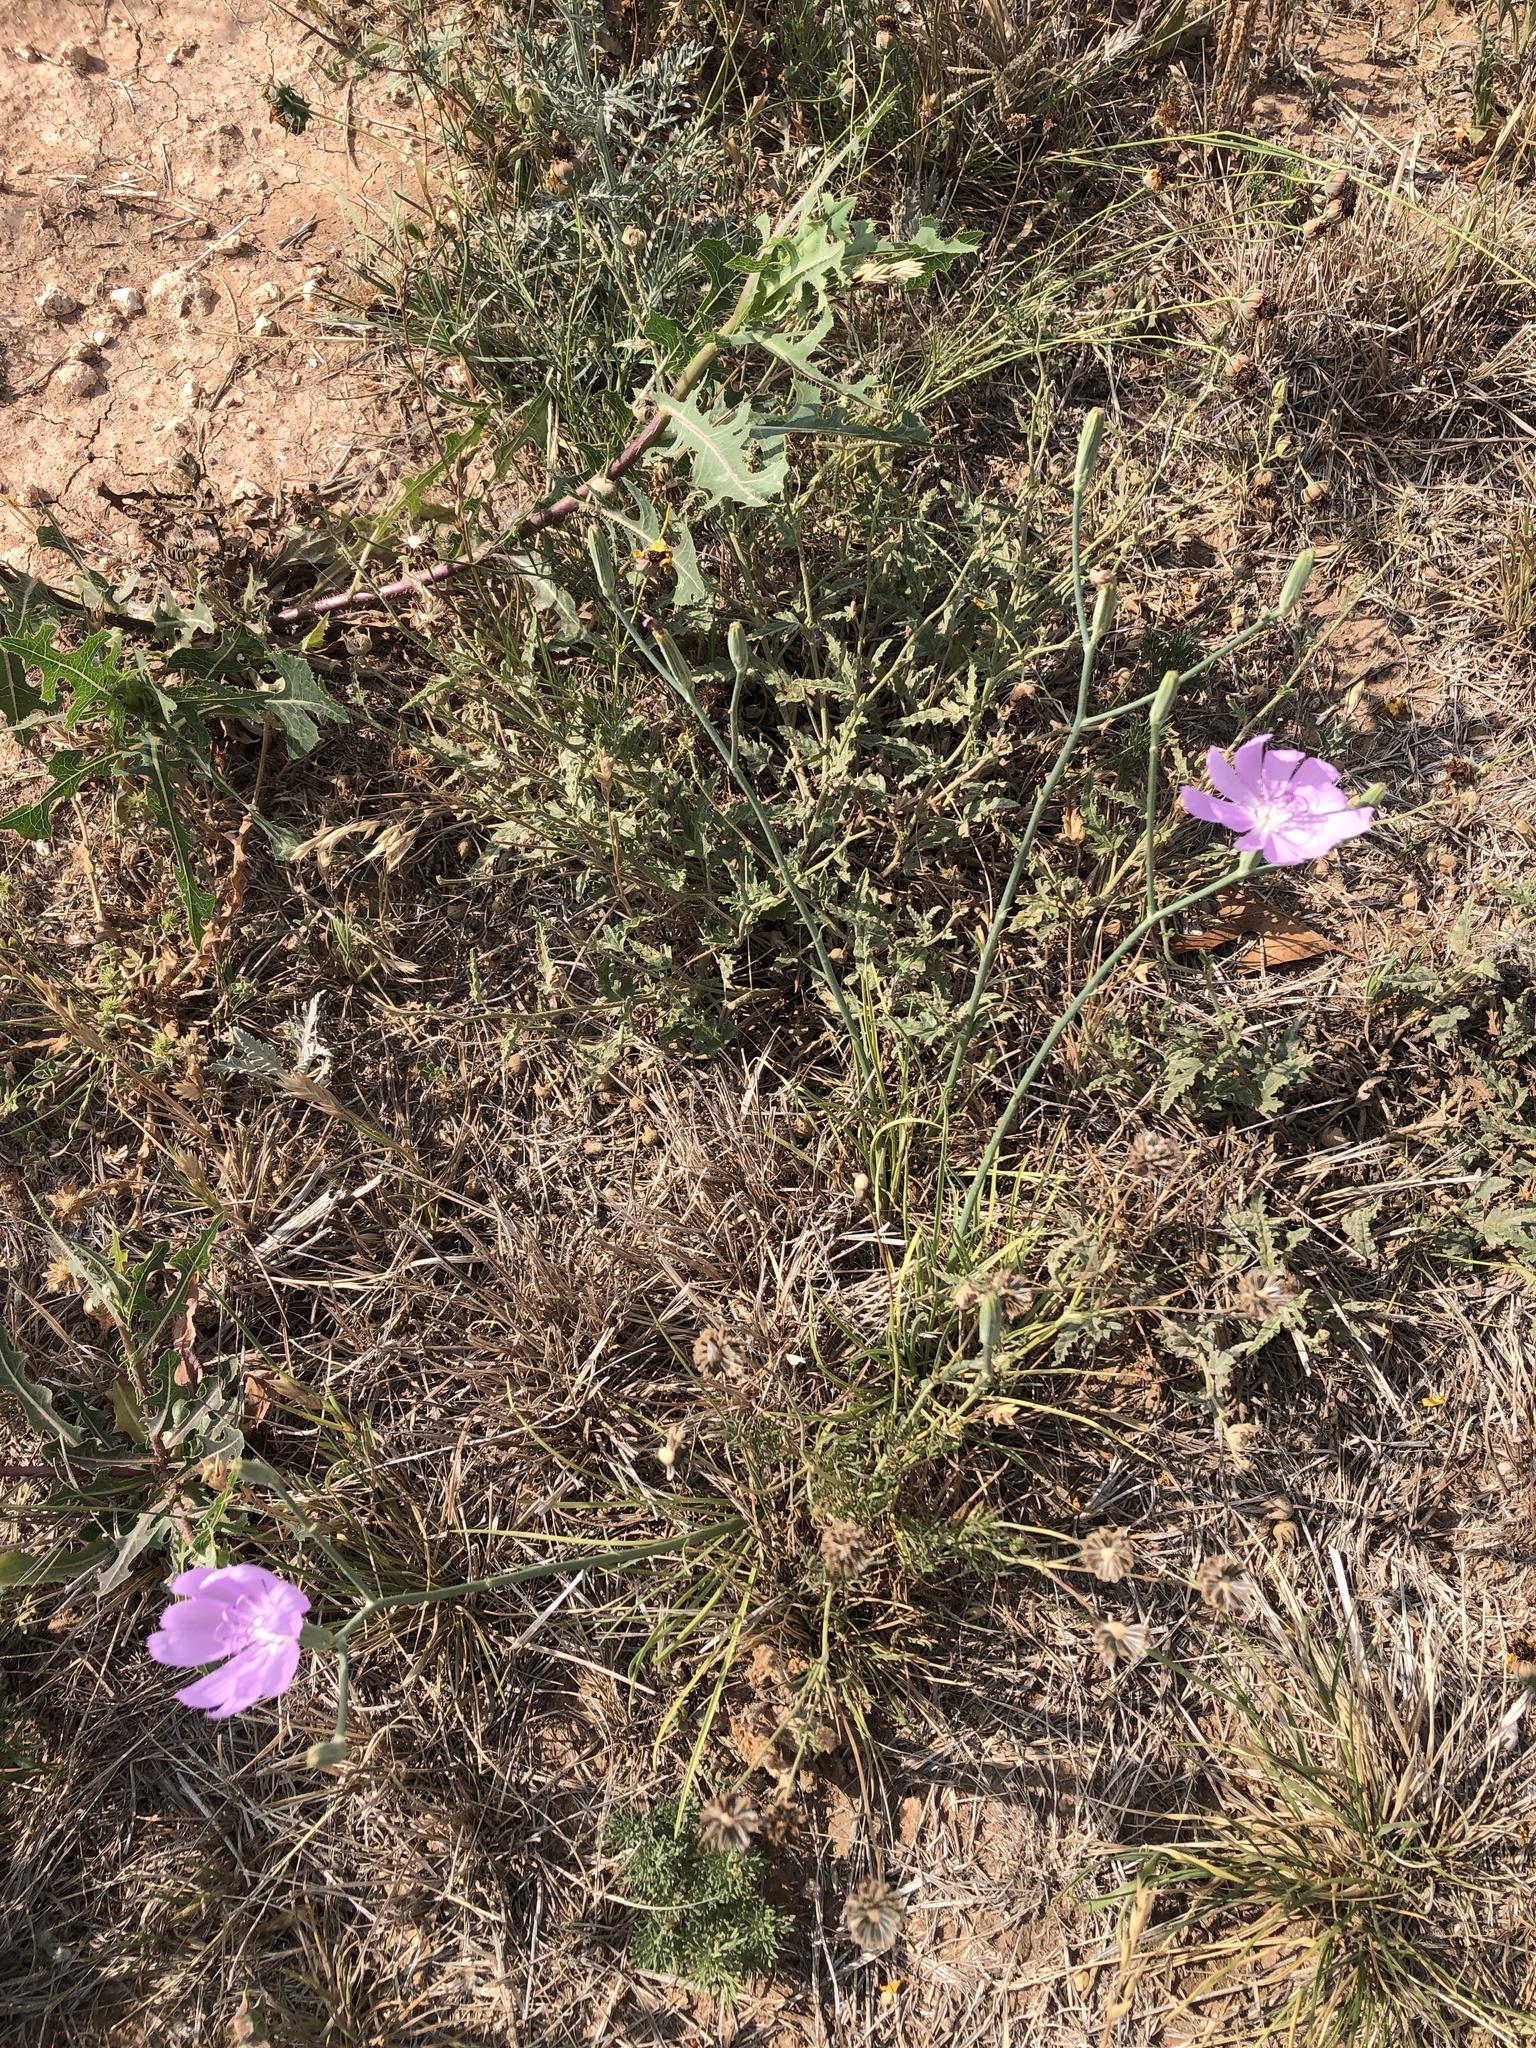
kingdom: Plantae
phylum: Tracheophyta
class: Magnoliopsida
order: Asterales
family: Asteraceae
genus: Lygodesmia
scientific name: Lygodesmia texana
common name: Texas skeleton-plant
